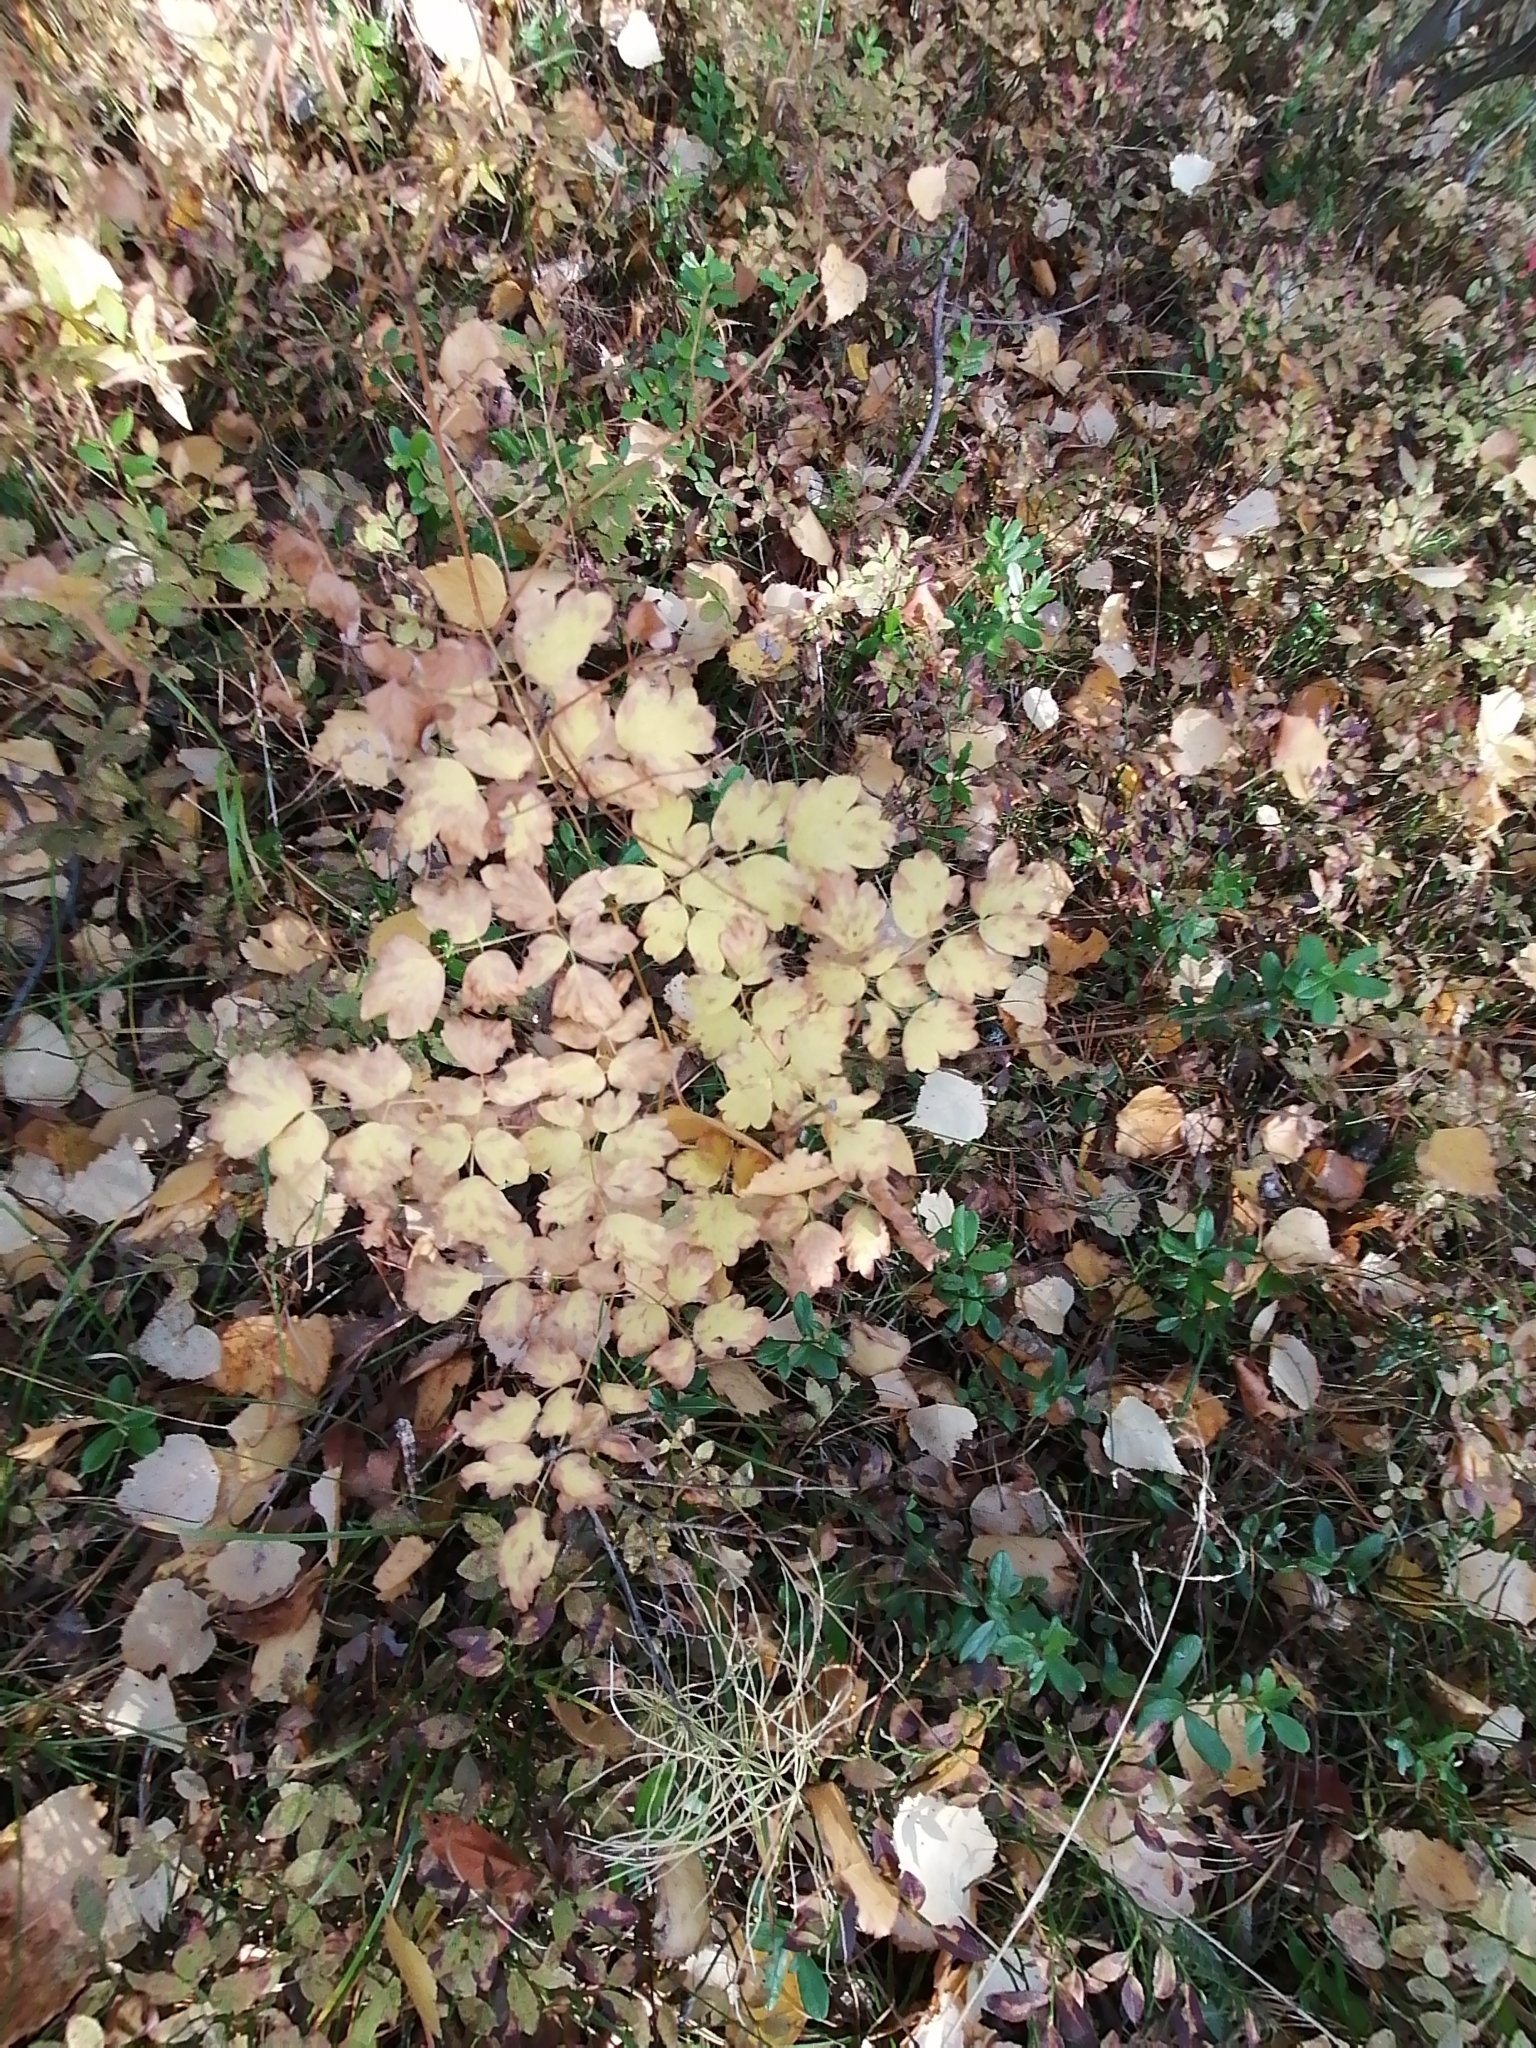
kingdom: Plantae
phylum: Tracheophyta
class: Magnoliopsida
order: Ranunculales
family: Ranunculaceae
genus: Thalictrum
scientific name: Thalictrum minus
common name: Lesser meadow-rue
